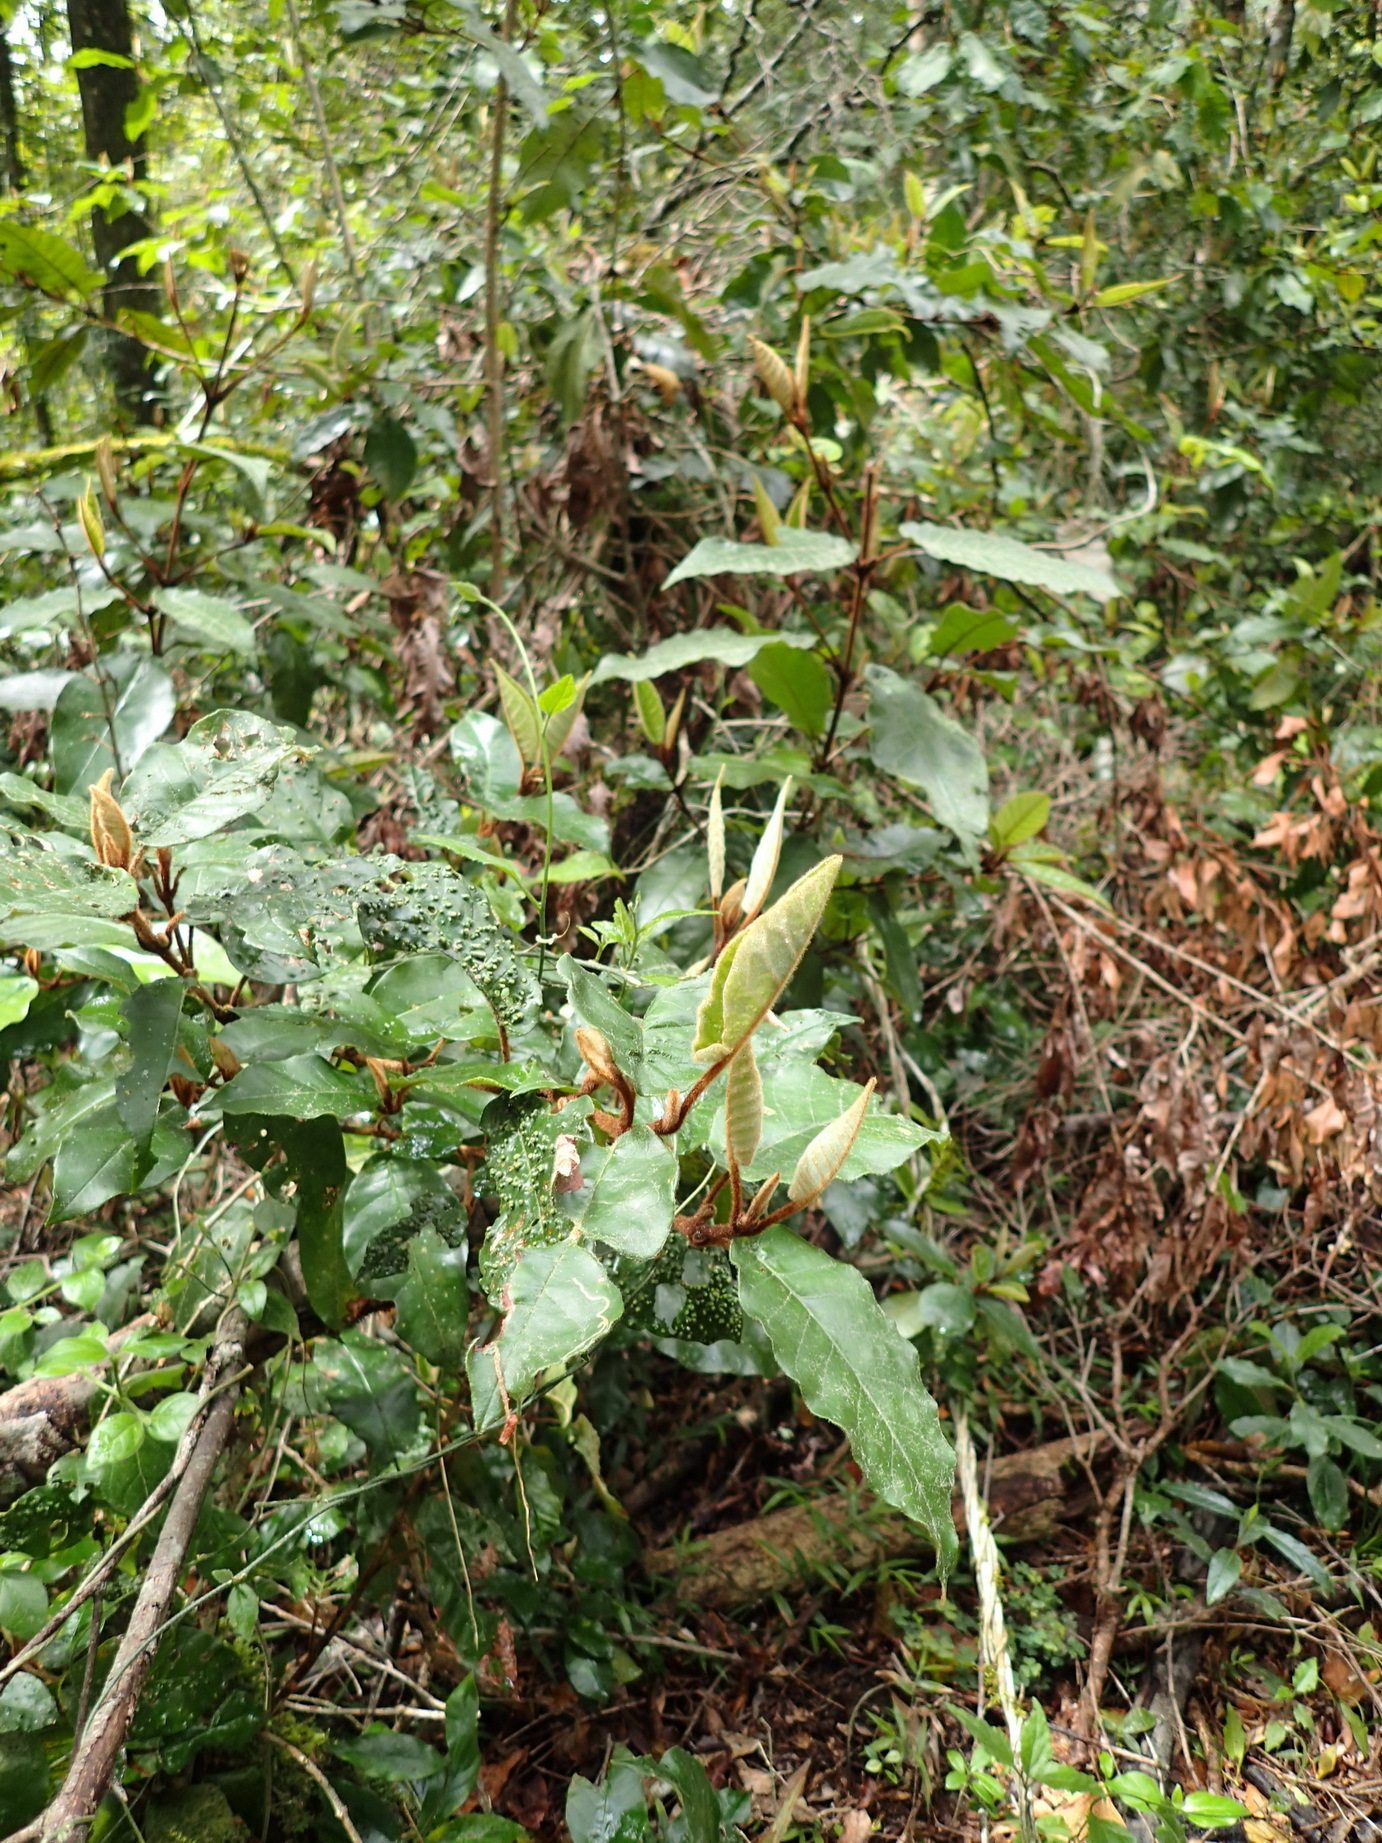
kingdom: Plantae
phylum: Tracheophyta
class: Magnoliopsida
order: Saxifragales
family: Hamamelidaceae
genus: Trichocladus
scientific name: Trichocladus crinitus
